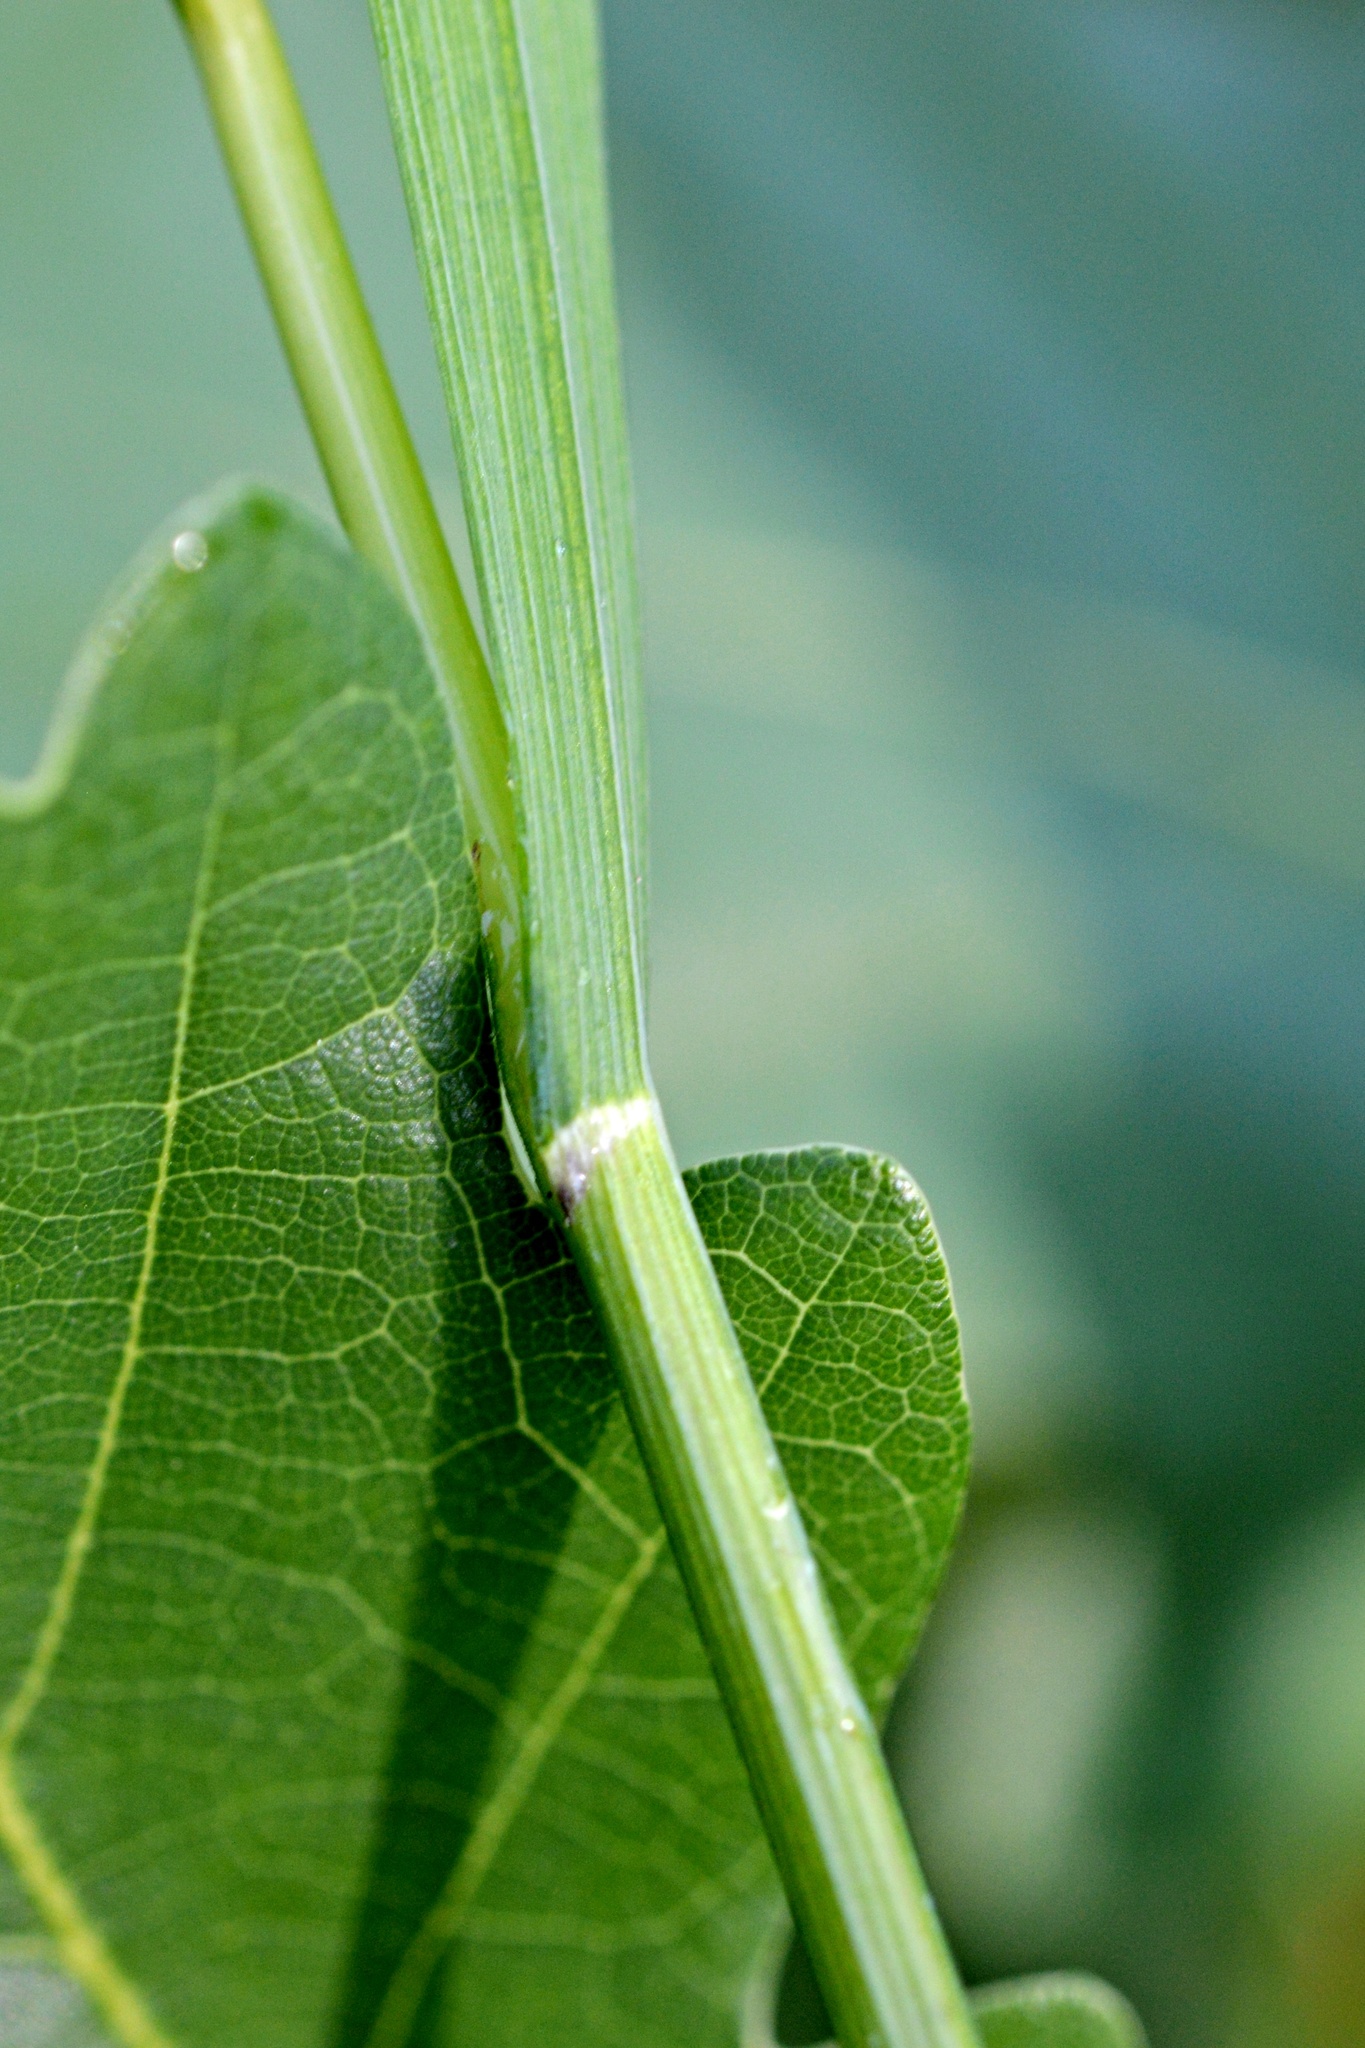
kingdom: Plantae
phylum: Tracheophyta
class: Liliopsida
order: Poales
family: Poaceae
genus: Melica
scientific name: Melica uniflora
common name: Wood melick
